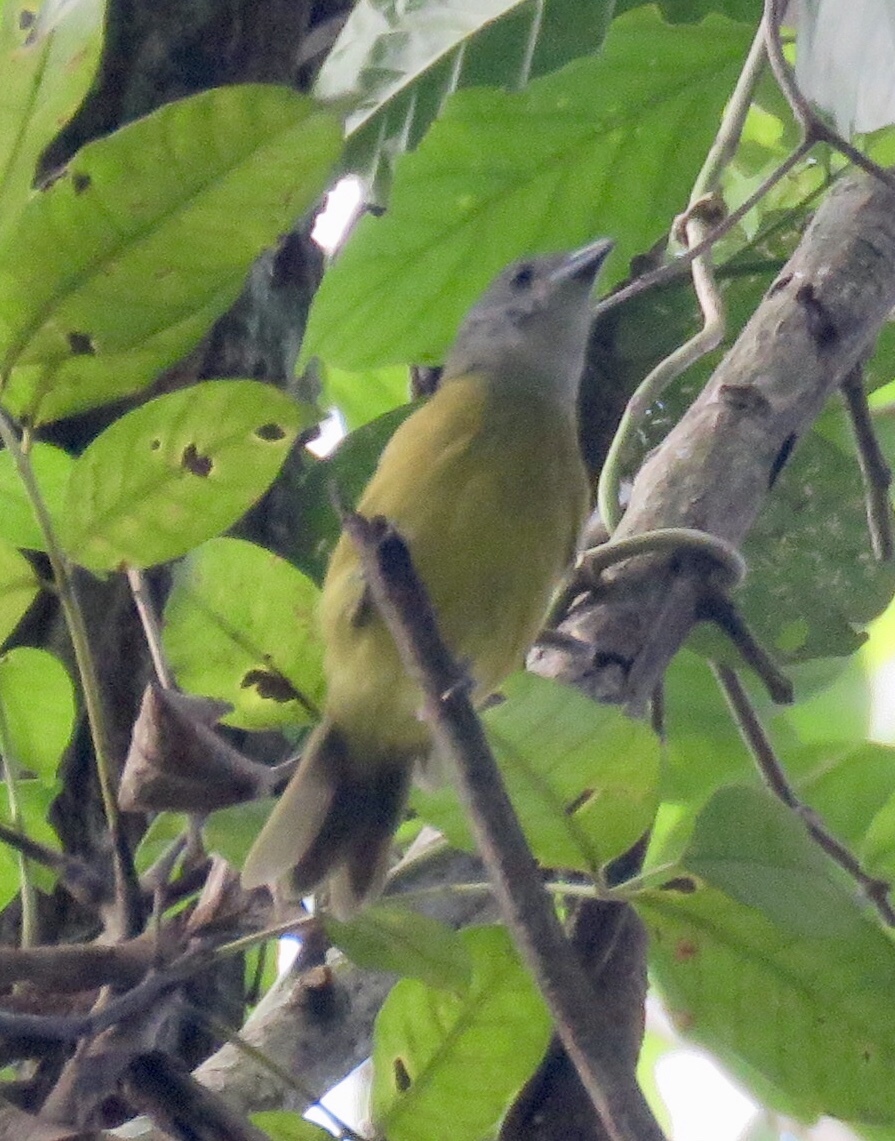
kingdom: Animalia
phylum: Chordata
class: Aves
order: Passeriformes
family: Thraupidae
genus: Loriotus
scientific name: Loriotus luctuosus
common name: White-shouldered tanager
